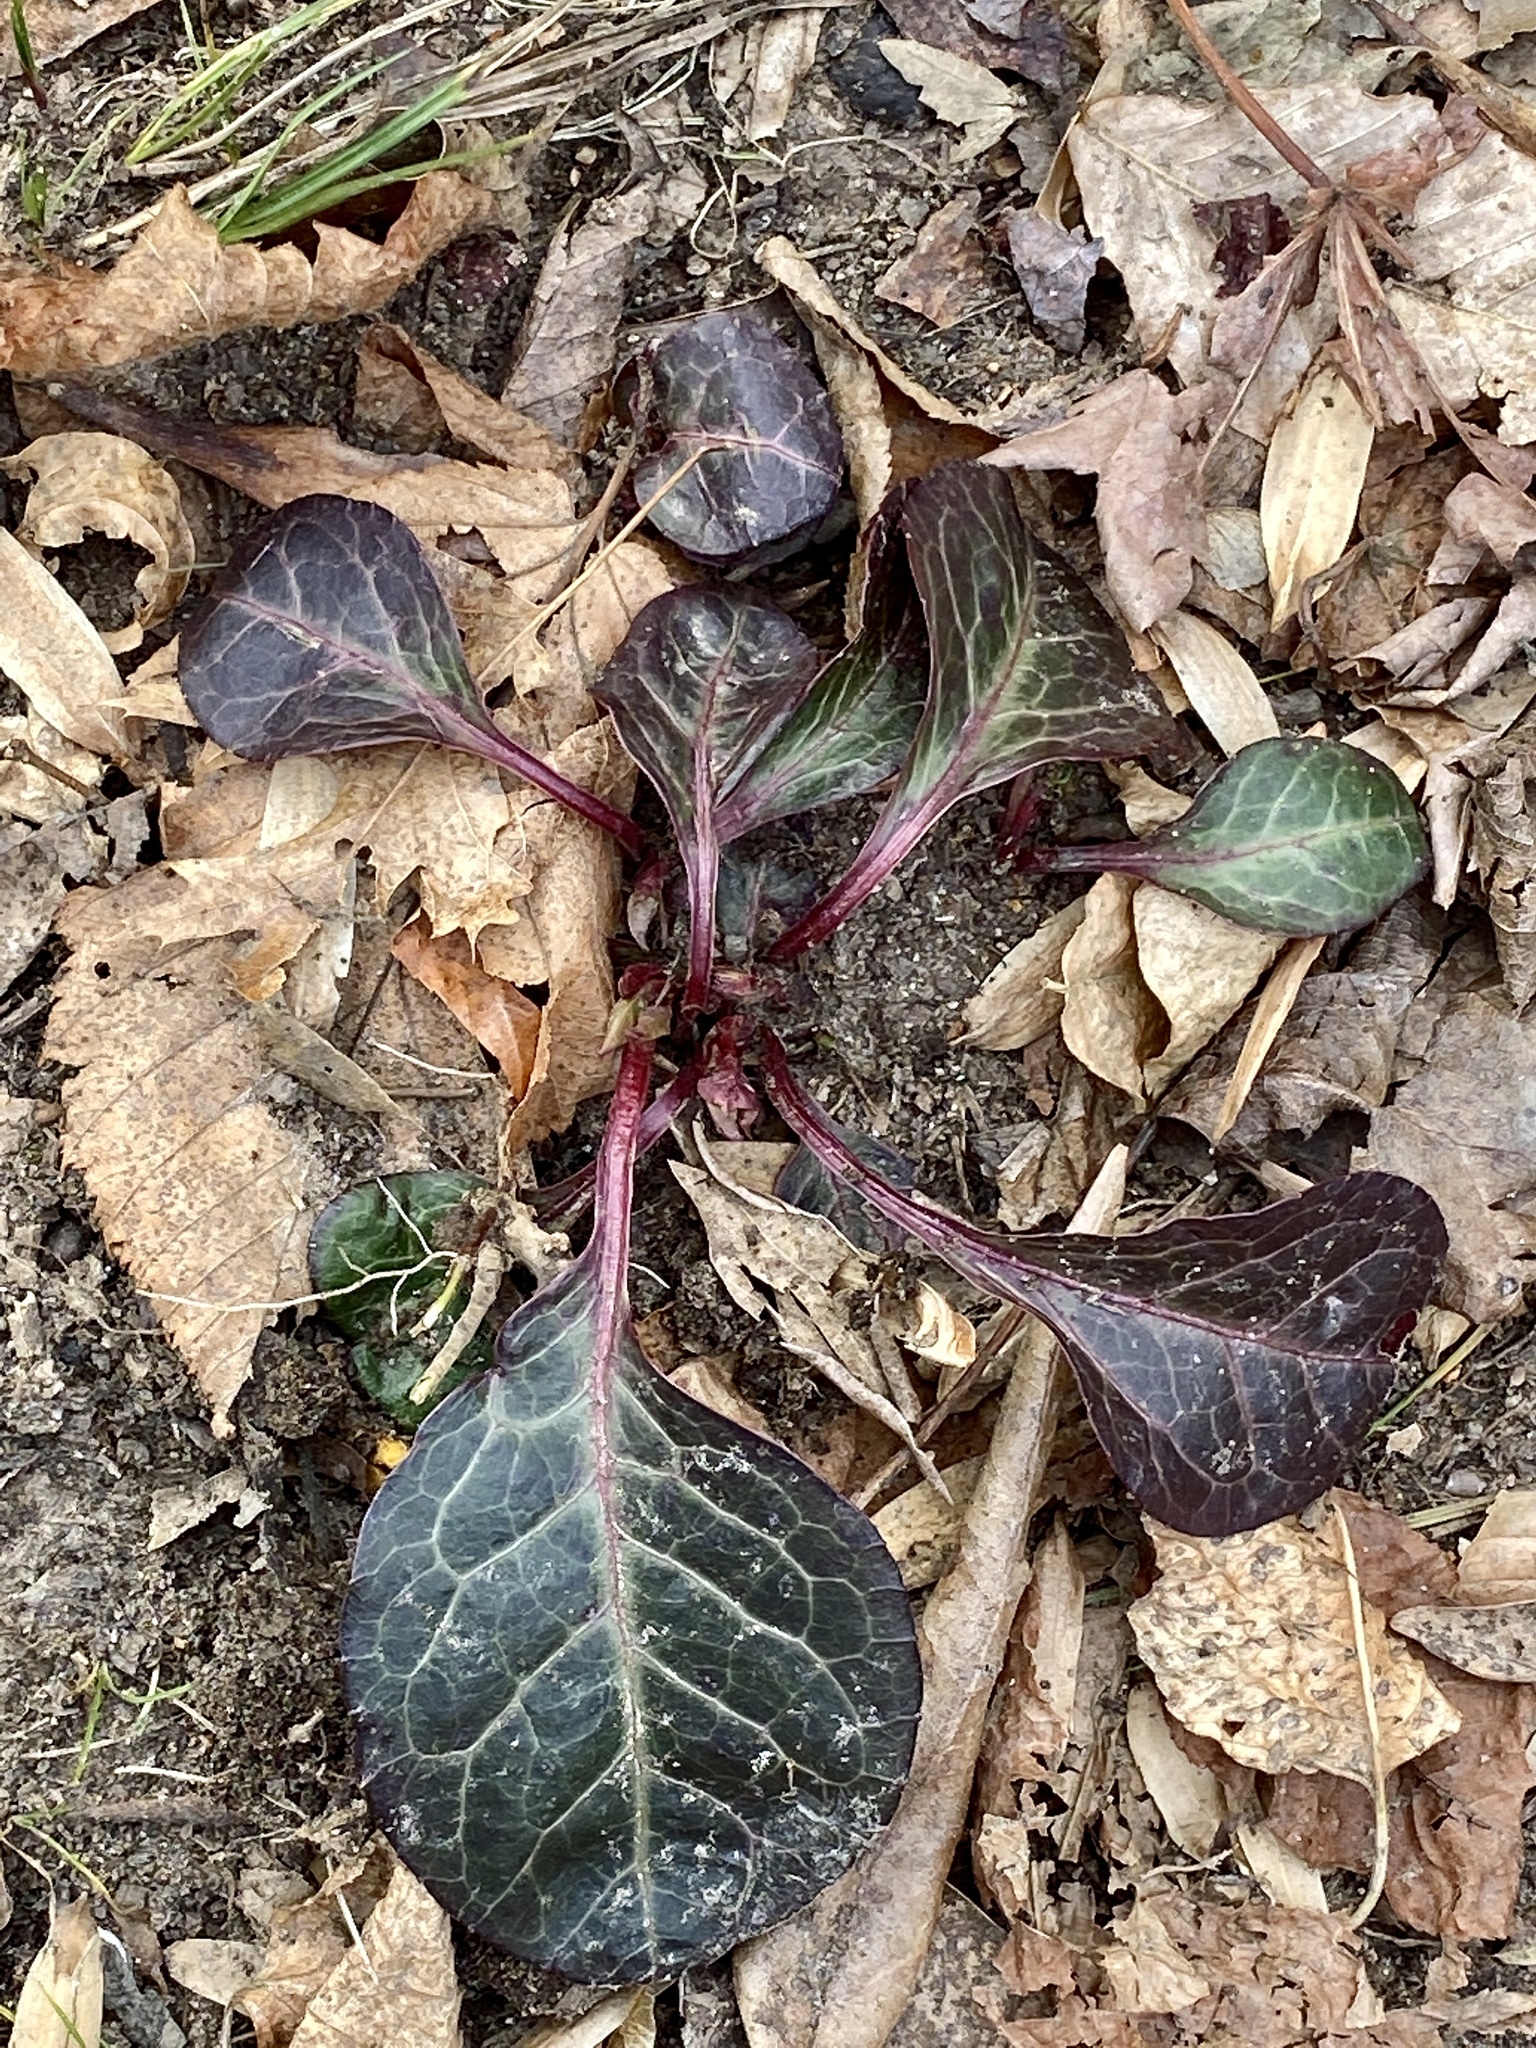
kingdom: Plantae
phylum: Tracheophyta
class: Magnoliopsida
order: Ericales
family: Ericaceae
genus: Pyrola
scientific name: Pyrola americana
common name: American wintergreen
